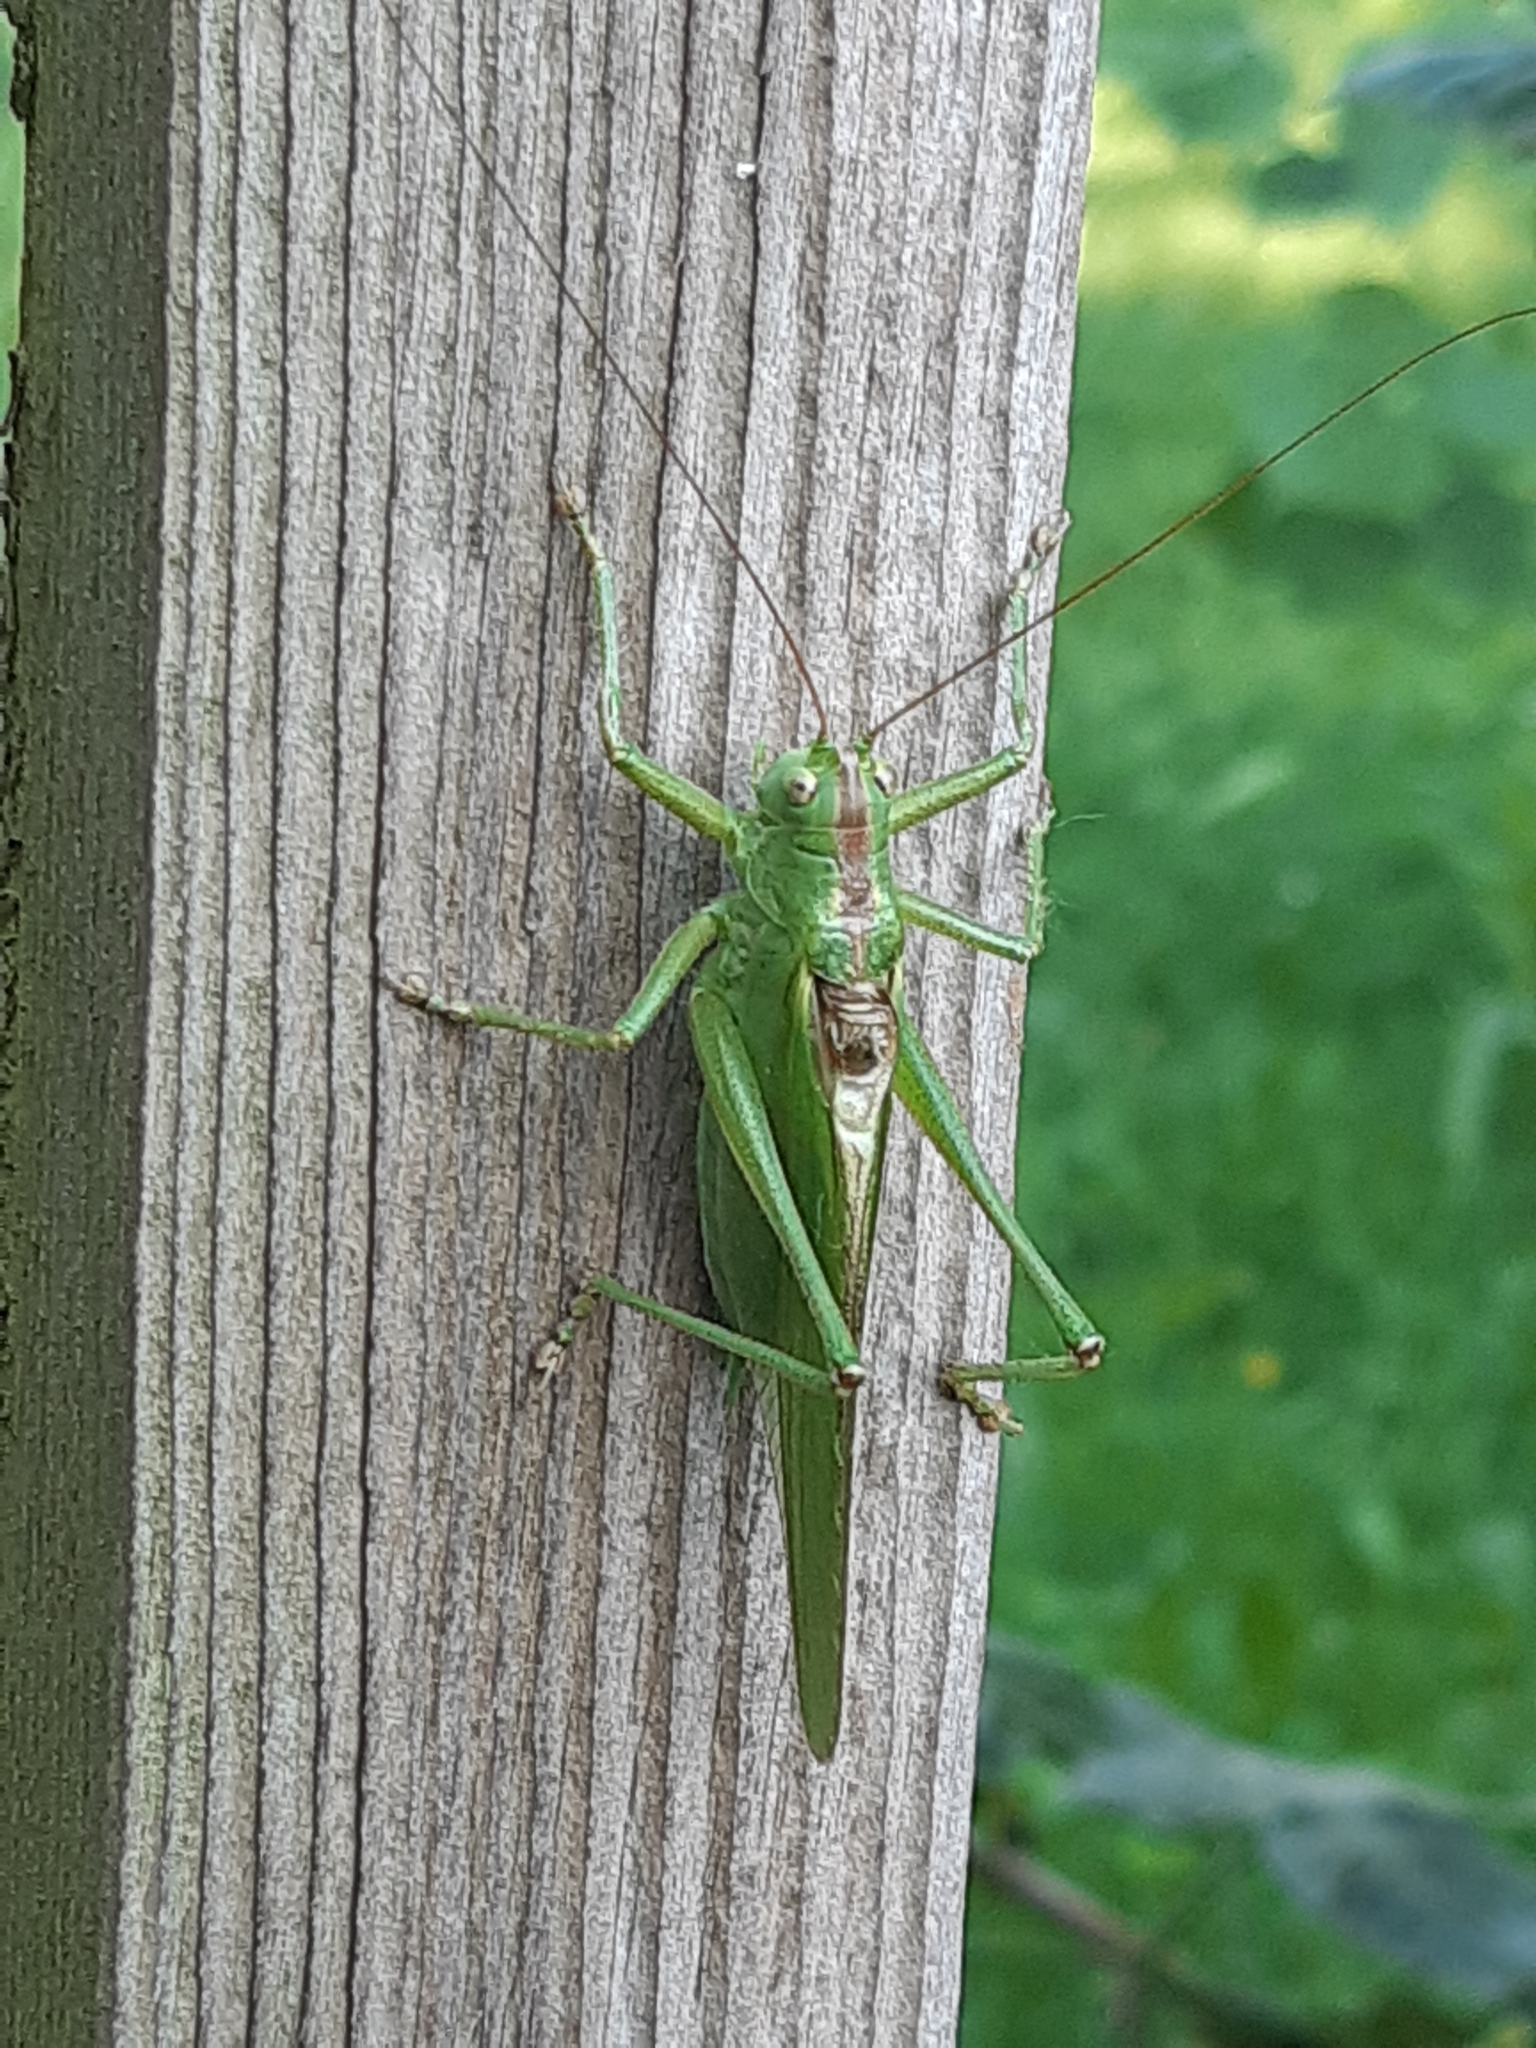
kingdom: Animalia
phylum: Arthropoda
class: Insecta
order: Orthoptera
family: Tettigoniidae
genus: Tettigonia
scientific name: Tettigonia viridissima
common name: Great green bush-cricket
